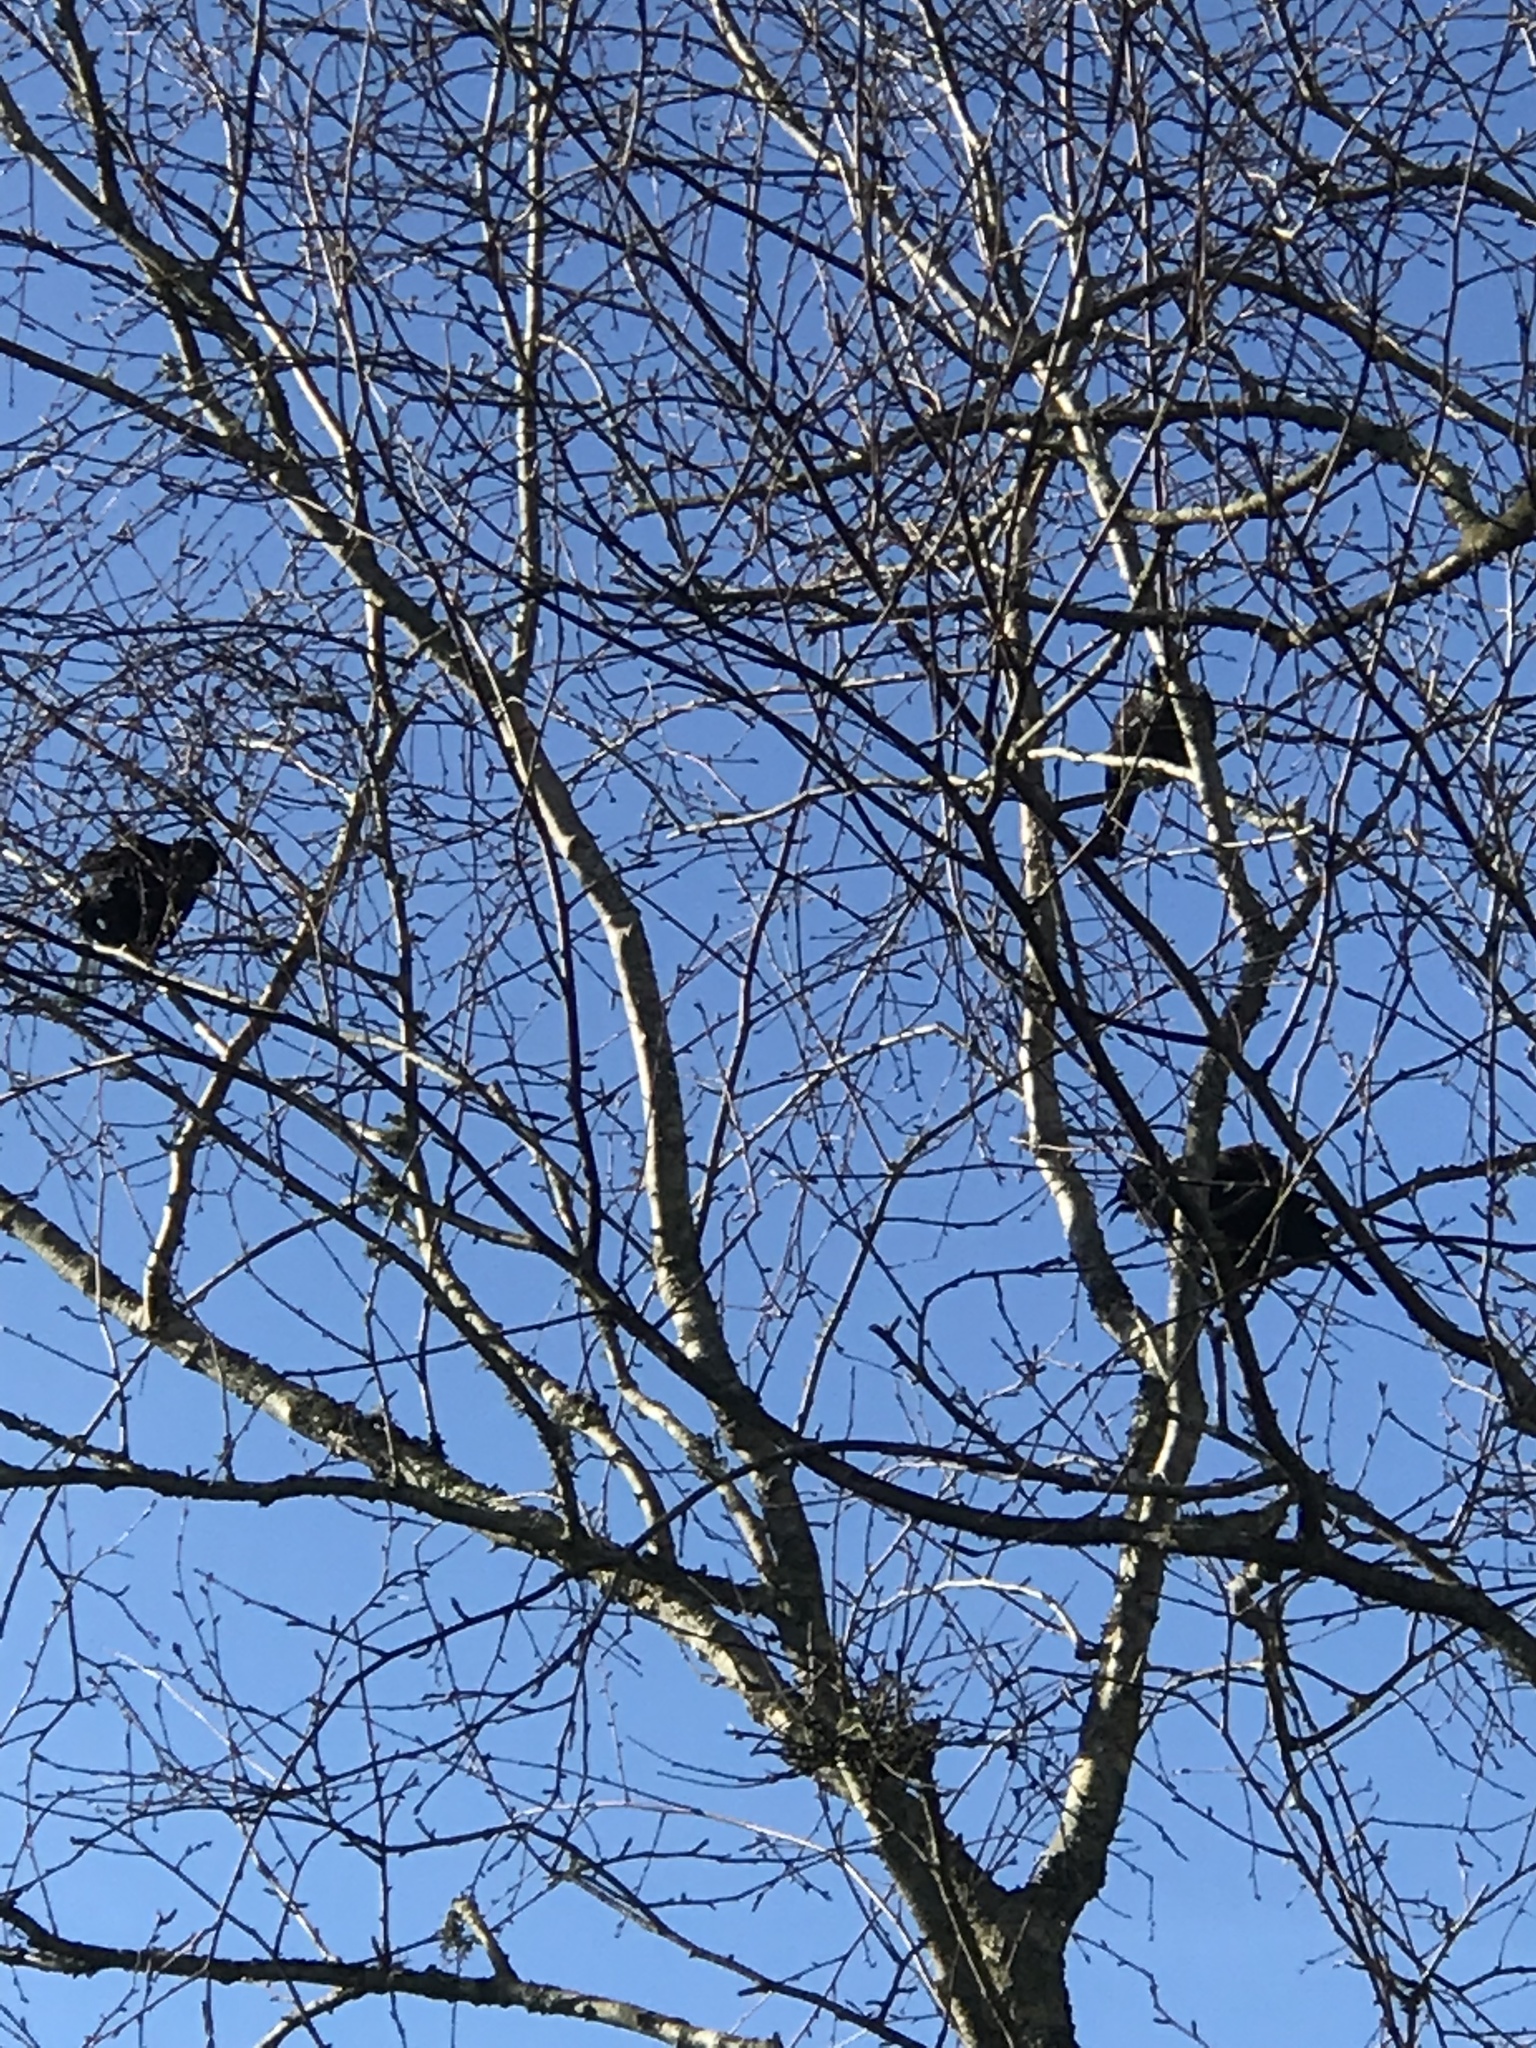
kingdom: Animalia
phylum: Chordata
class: Aves
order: Passeriformes
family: Meliphagidae
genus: Prosthemadera
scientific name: Prosthemadera novaeseelandiae
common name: Tui
